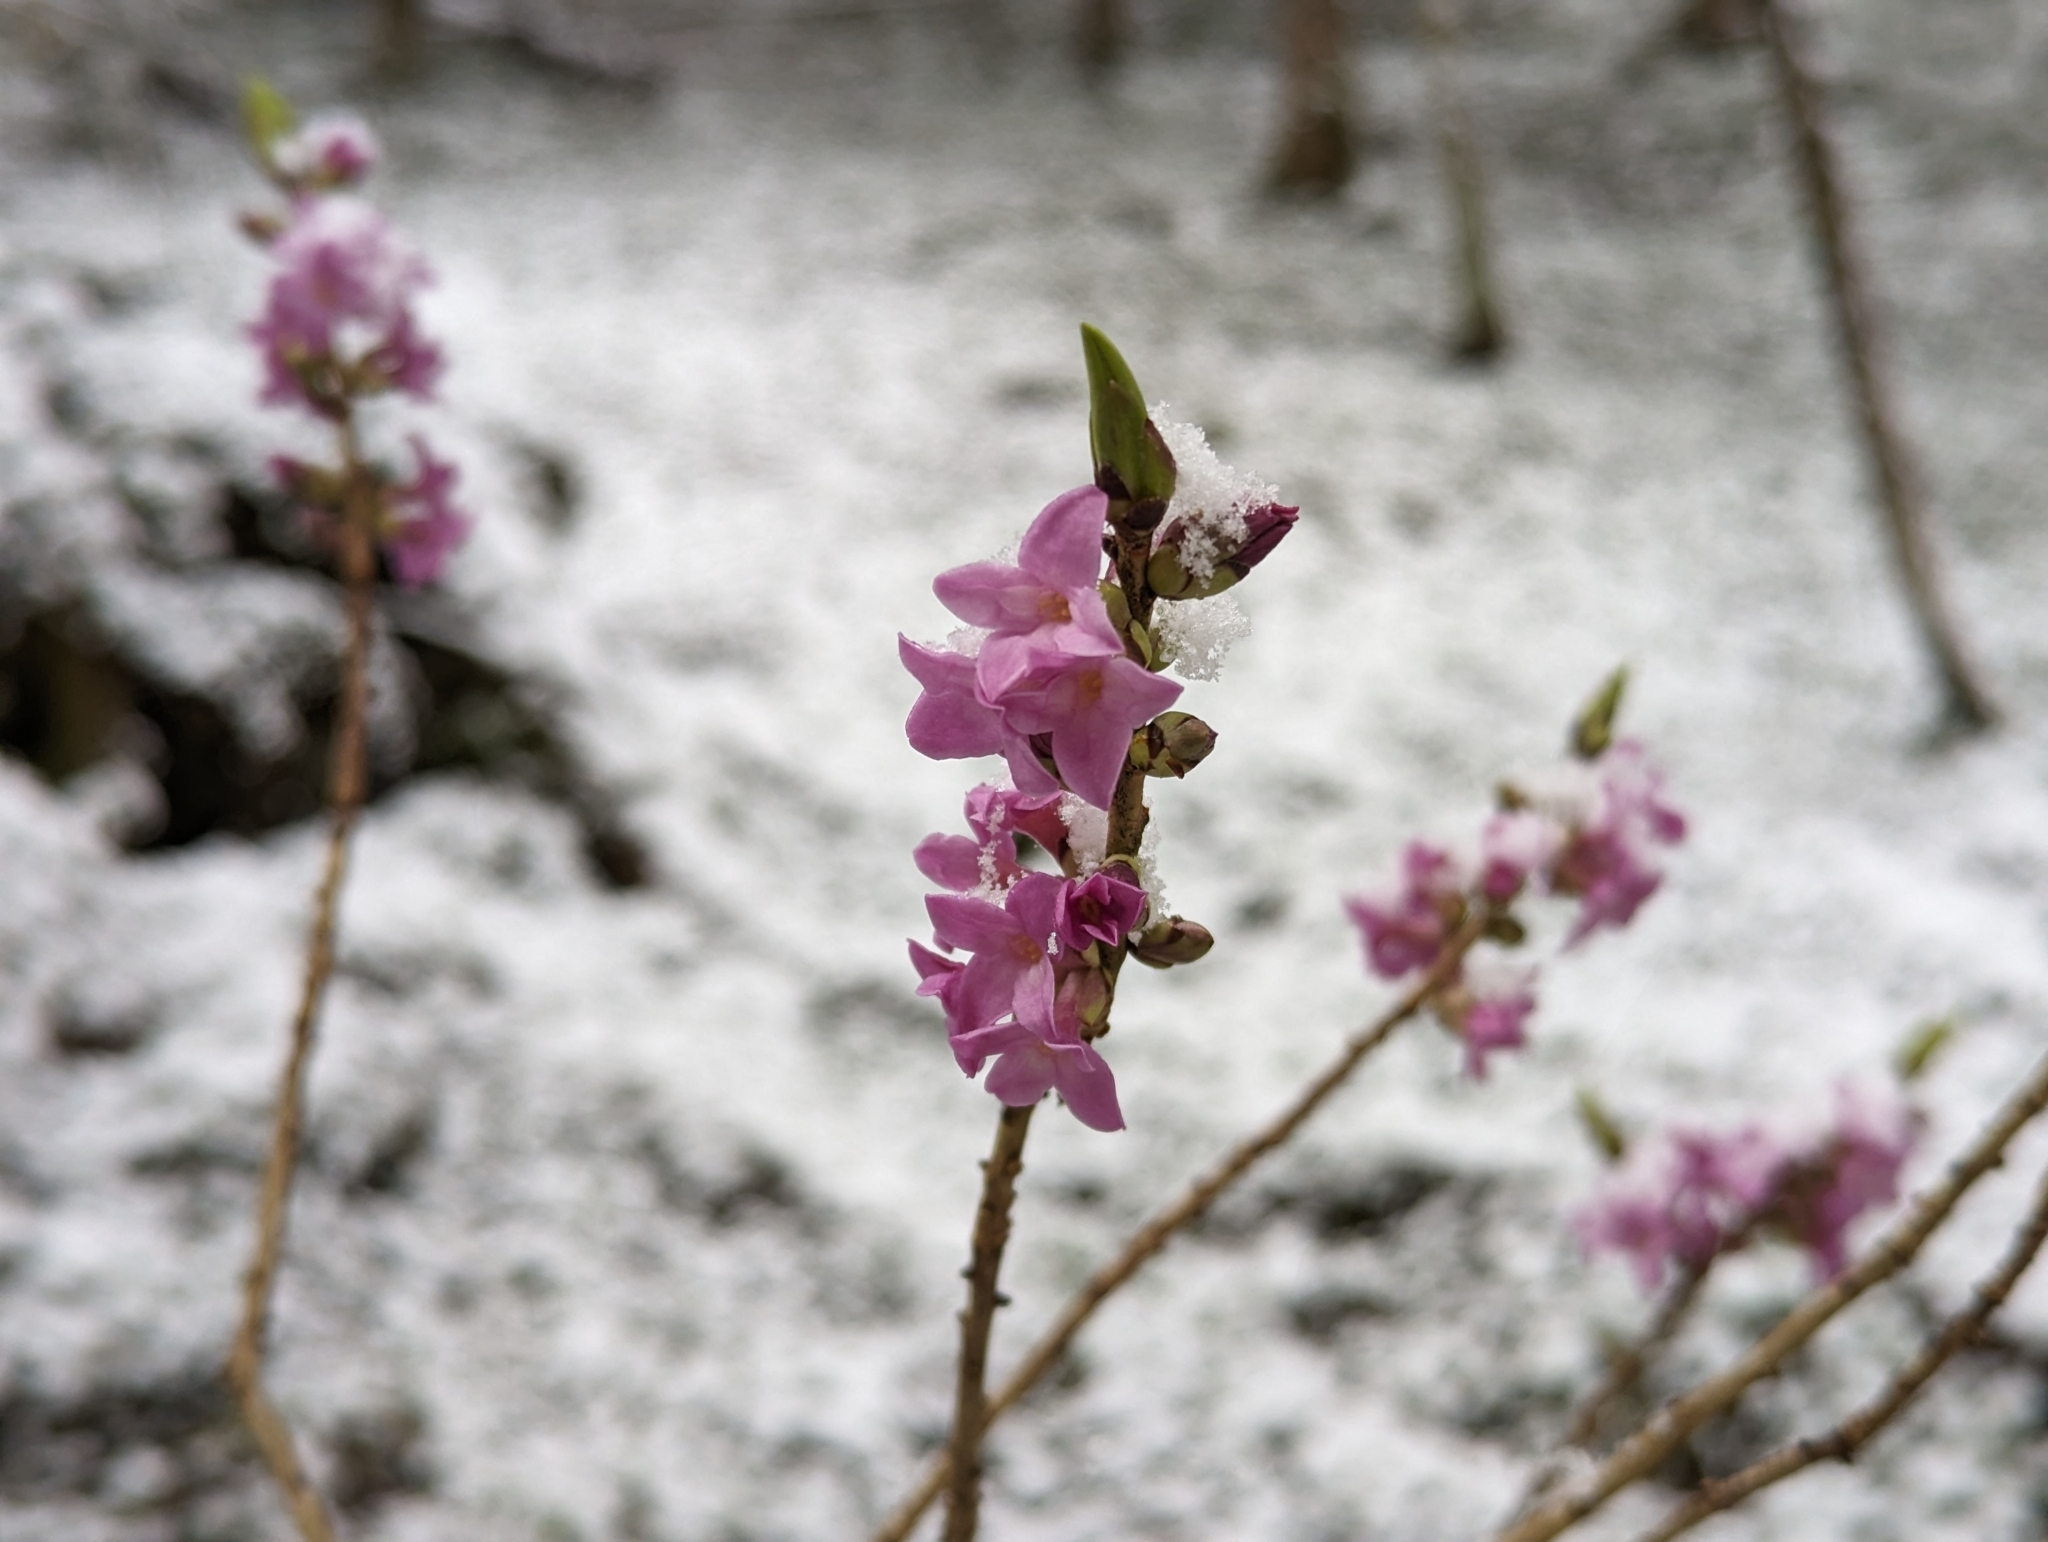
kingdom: Plantae
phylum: Tracheophyta
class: Magnoliopsida
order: Malvales
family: Thymelaeaceae
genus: Daphne
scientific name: Daphne mezereum
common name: Mezereon
